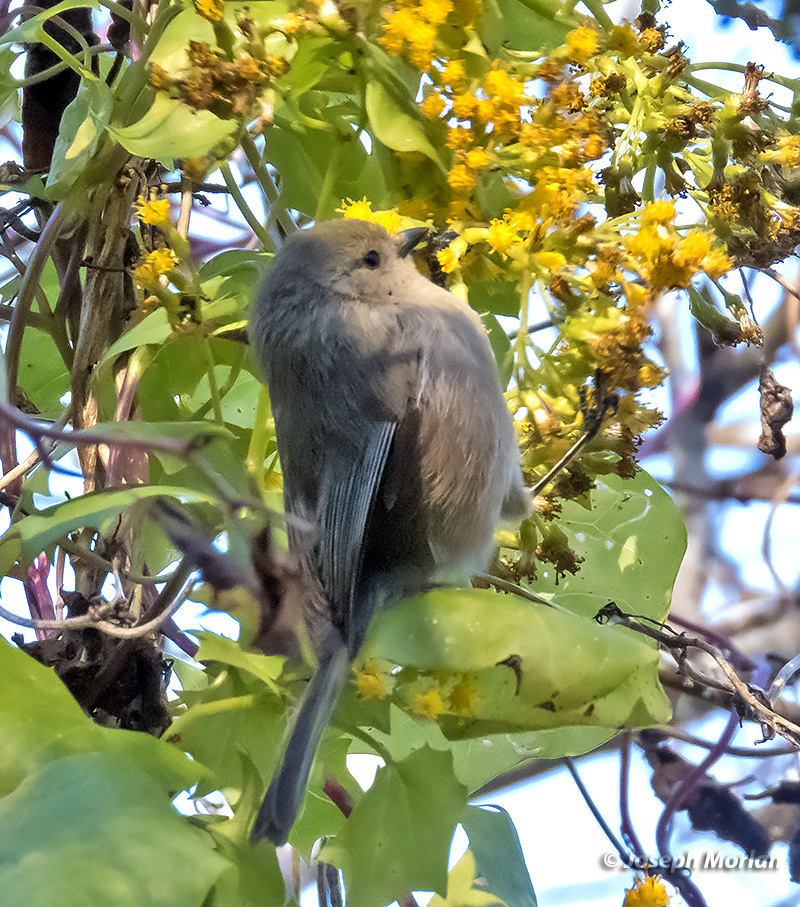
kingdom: Animalia
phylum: Chordata
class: Aves
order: Passeriformes
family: Aegithalidae
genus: Psaltriparus
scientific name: Psaltriparus minimus
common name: American bushtit
